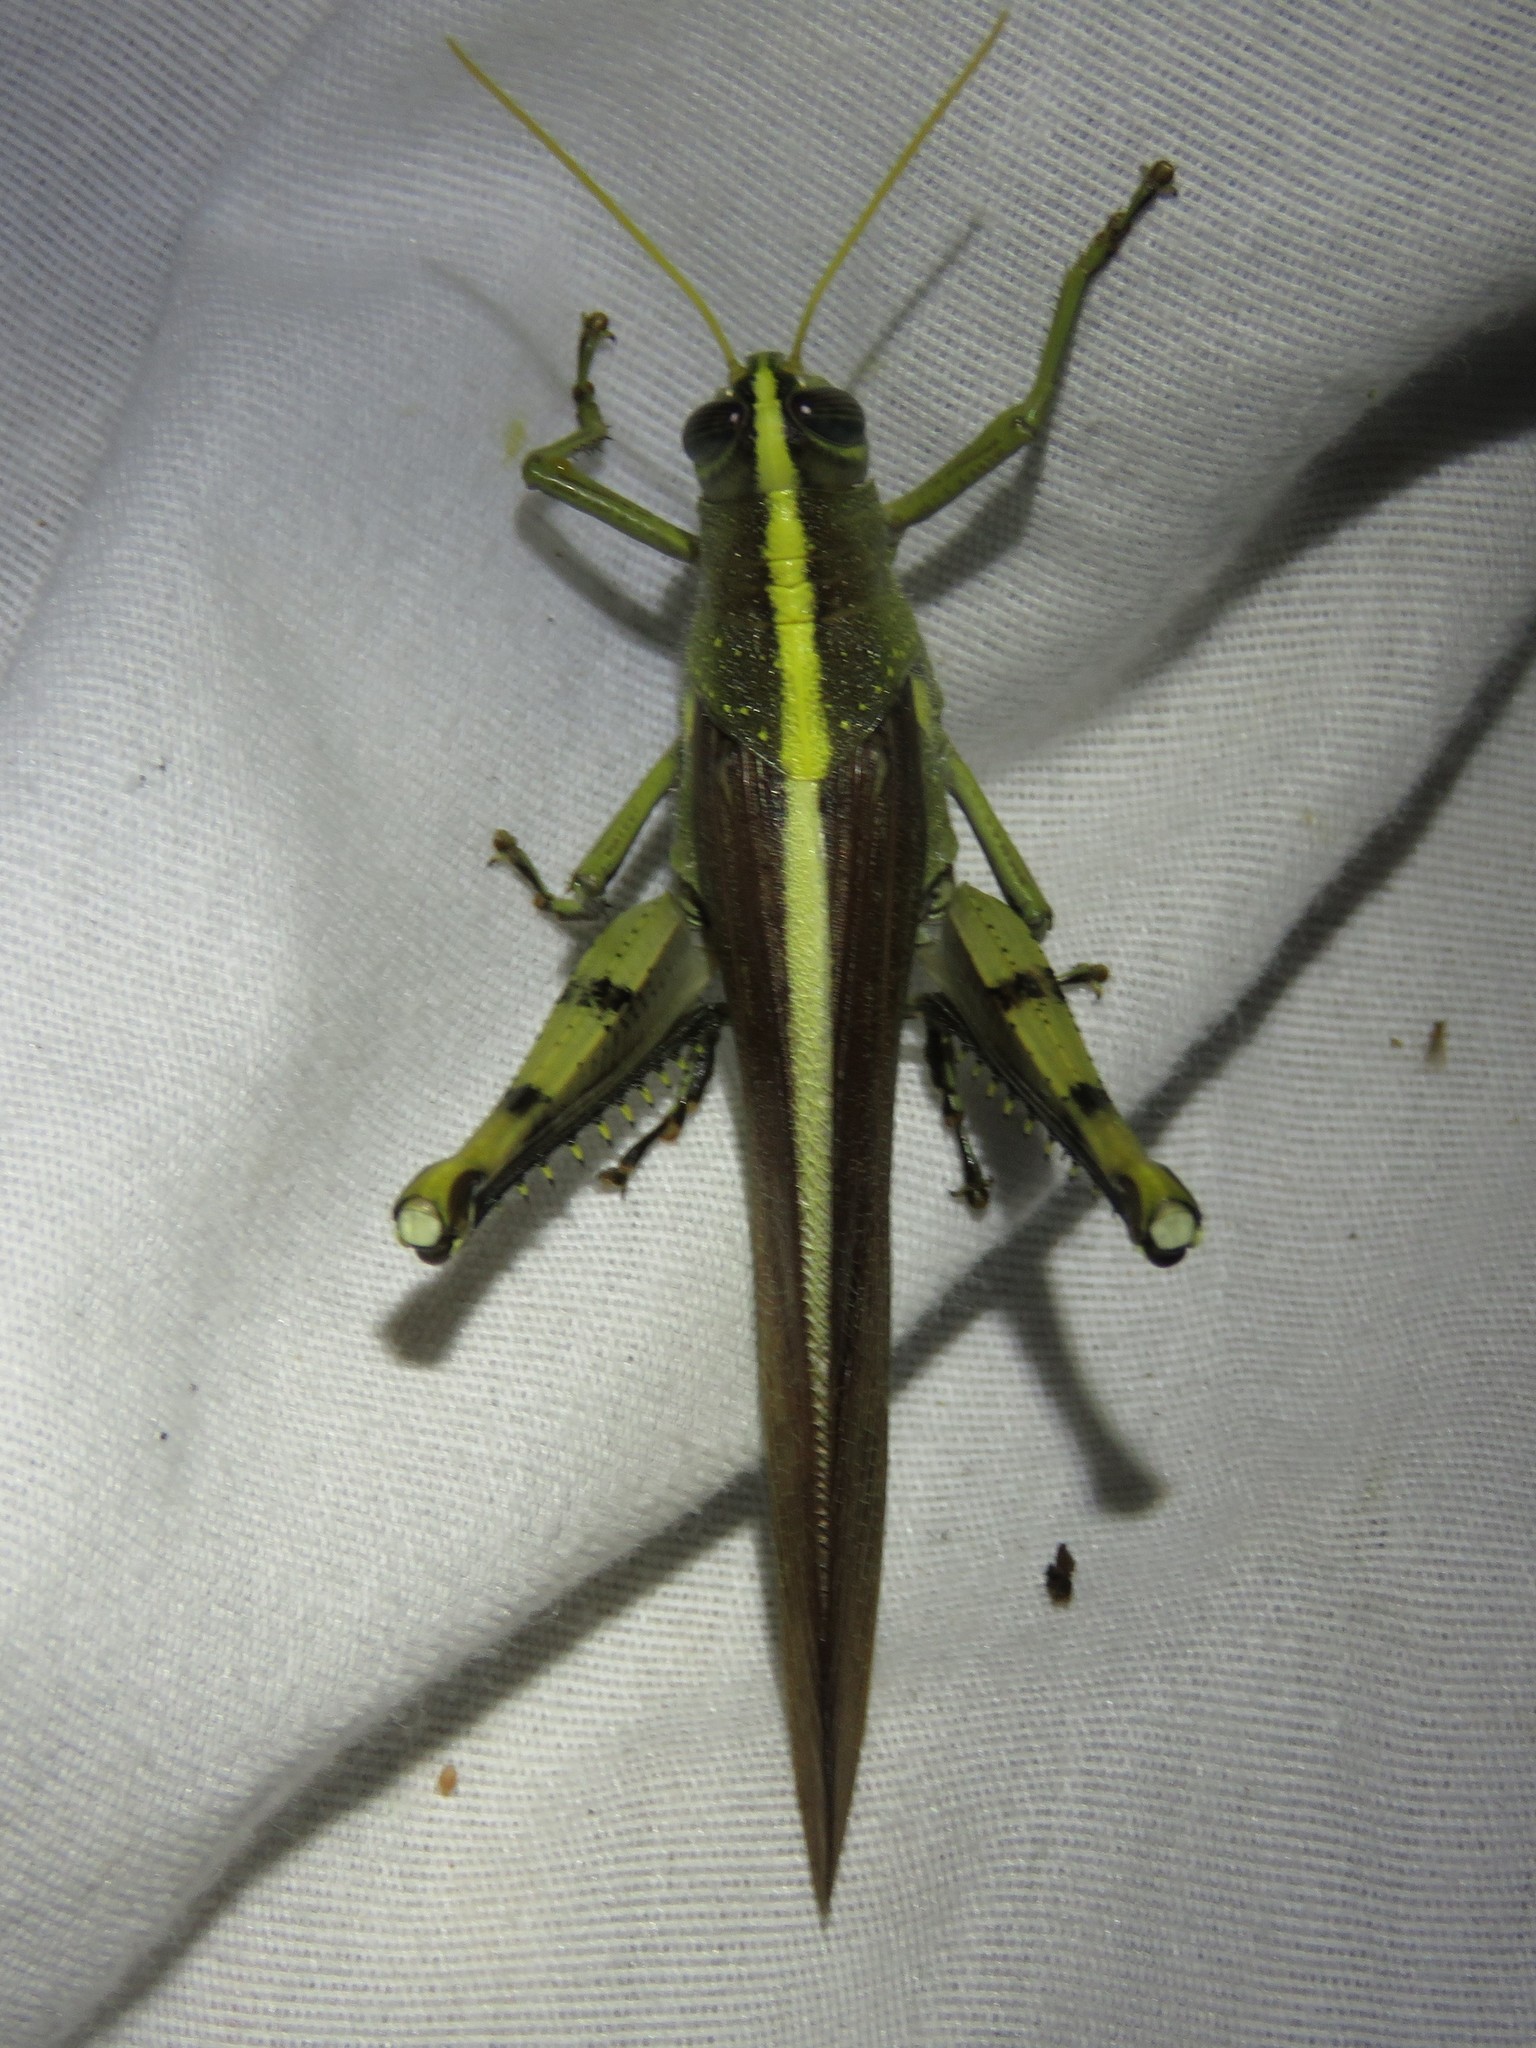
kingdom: Animalia
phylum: Arthropoda
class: Insecta
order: Orthoptera
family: Acrididae
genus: Schistocerca
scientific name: Schistocerca obscura
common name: Obscure bird grasshopper
